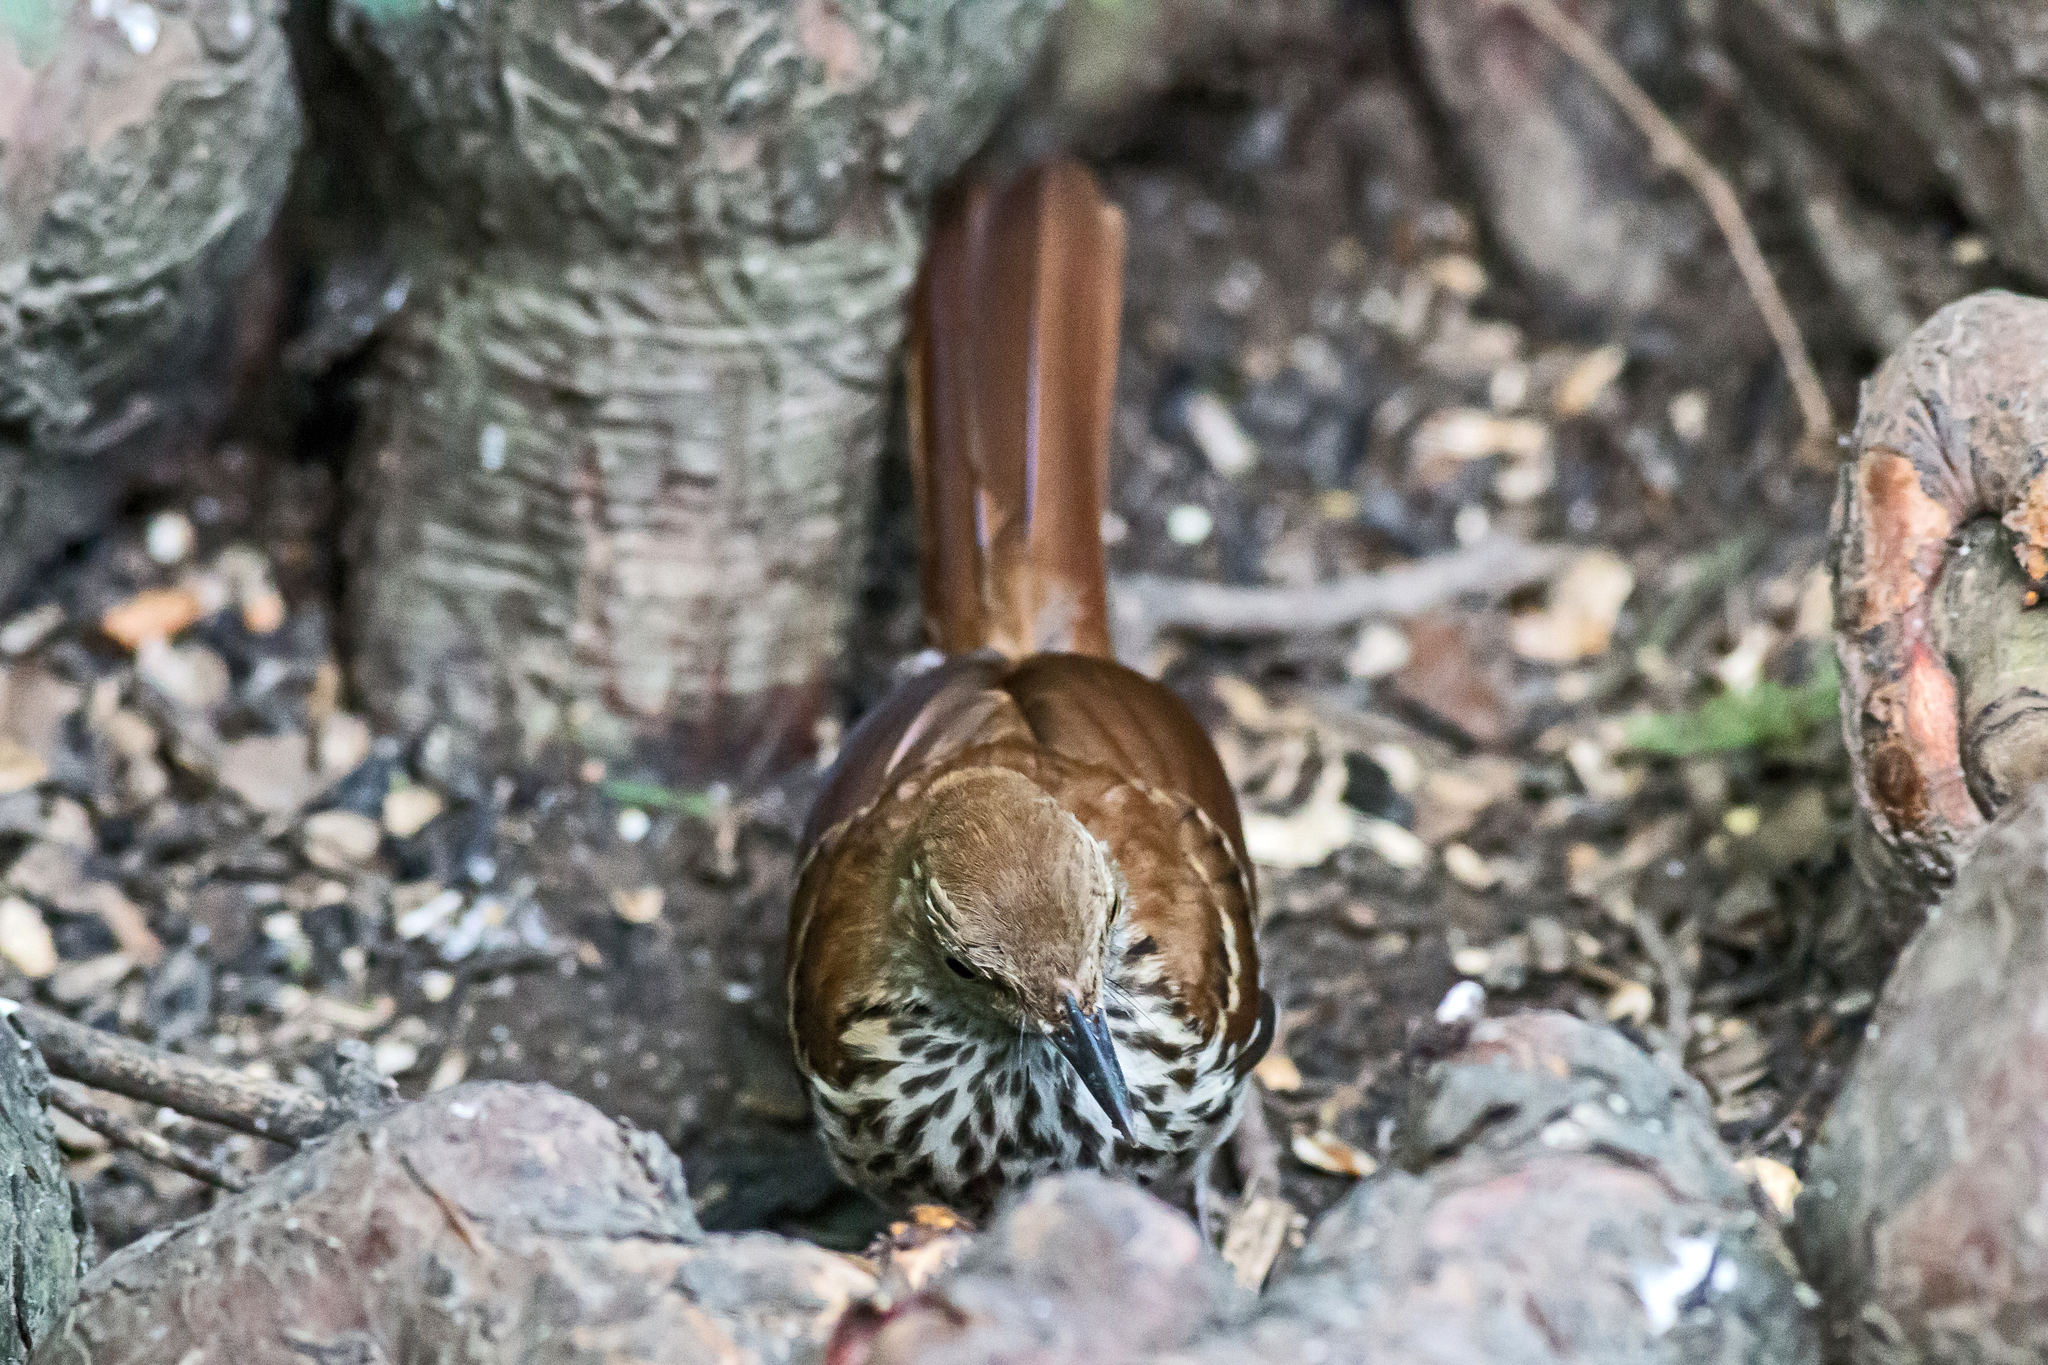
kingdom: Animalia
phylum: Chordata
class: Aves
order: Passeriformes
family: Mimidae
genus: Toxostoma
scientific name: Toxostoma rufum
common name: Brown thrasher
